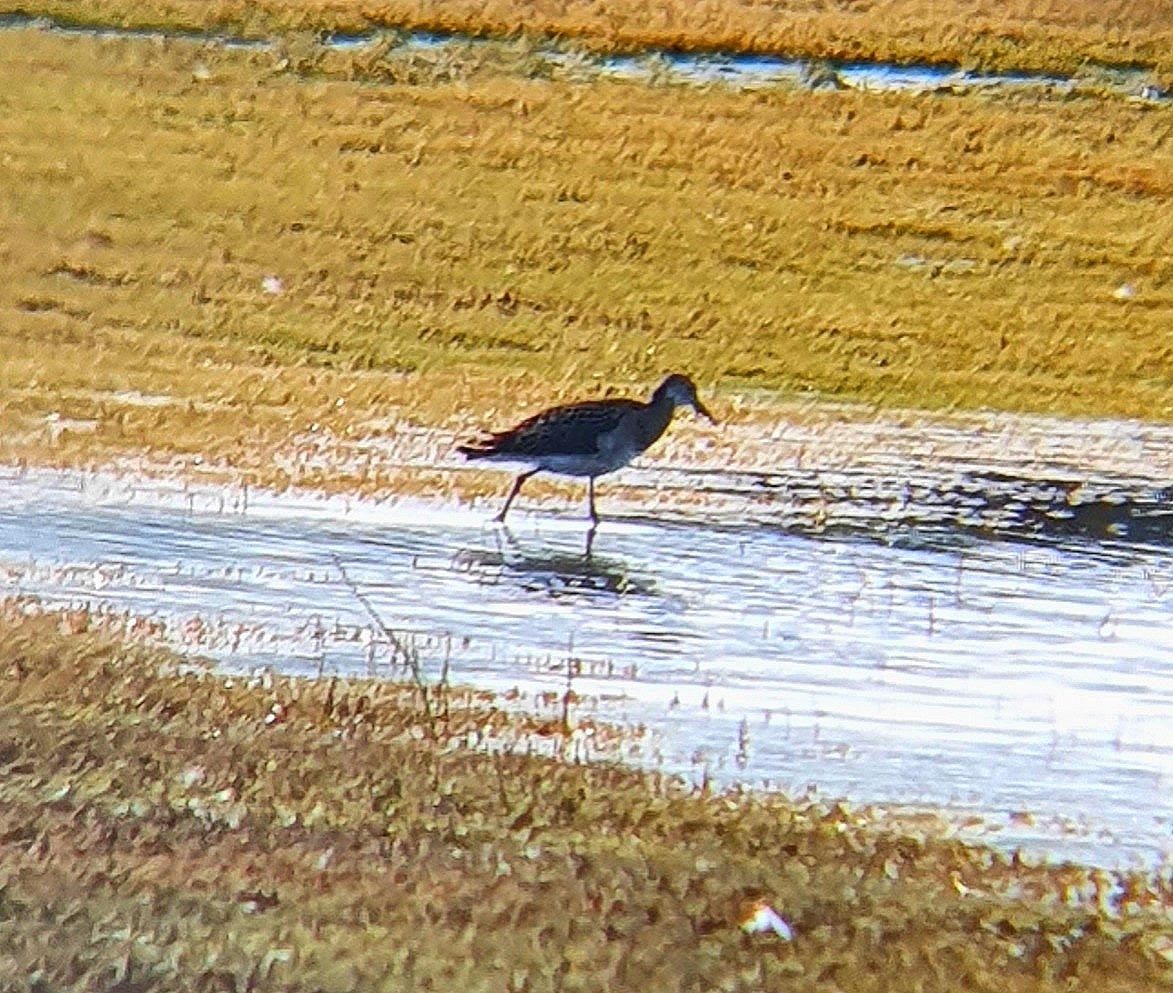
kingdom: Animalia
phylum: Chordata
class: Aves
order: Charadriiformes
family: Scolopacidae
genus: Calidris
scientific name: Calidris pugnax
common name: Ruff
